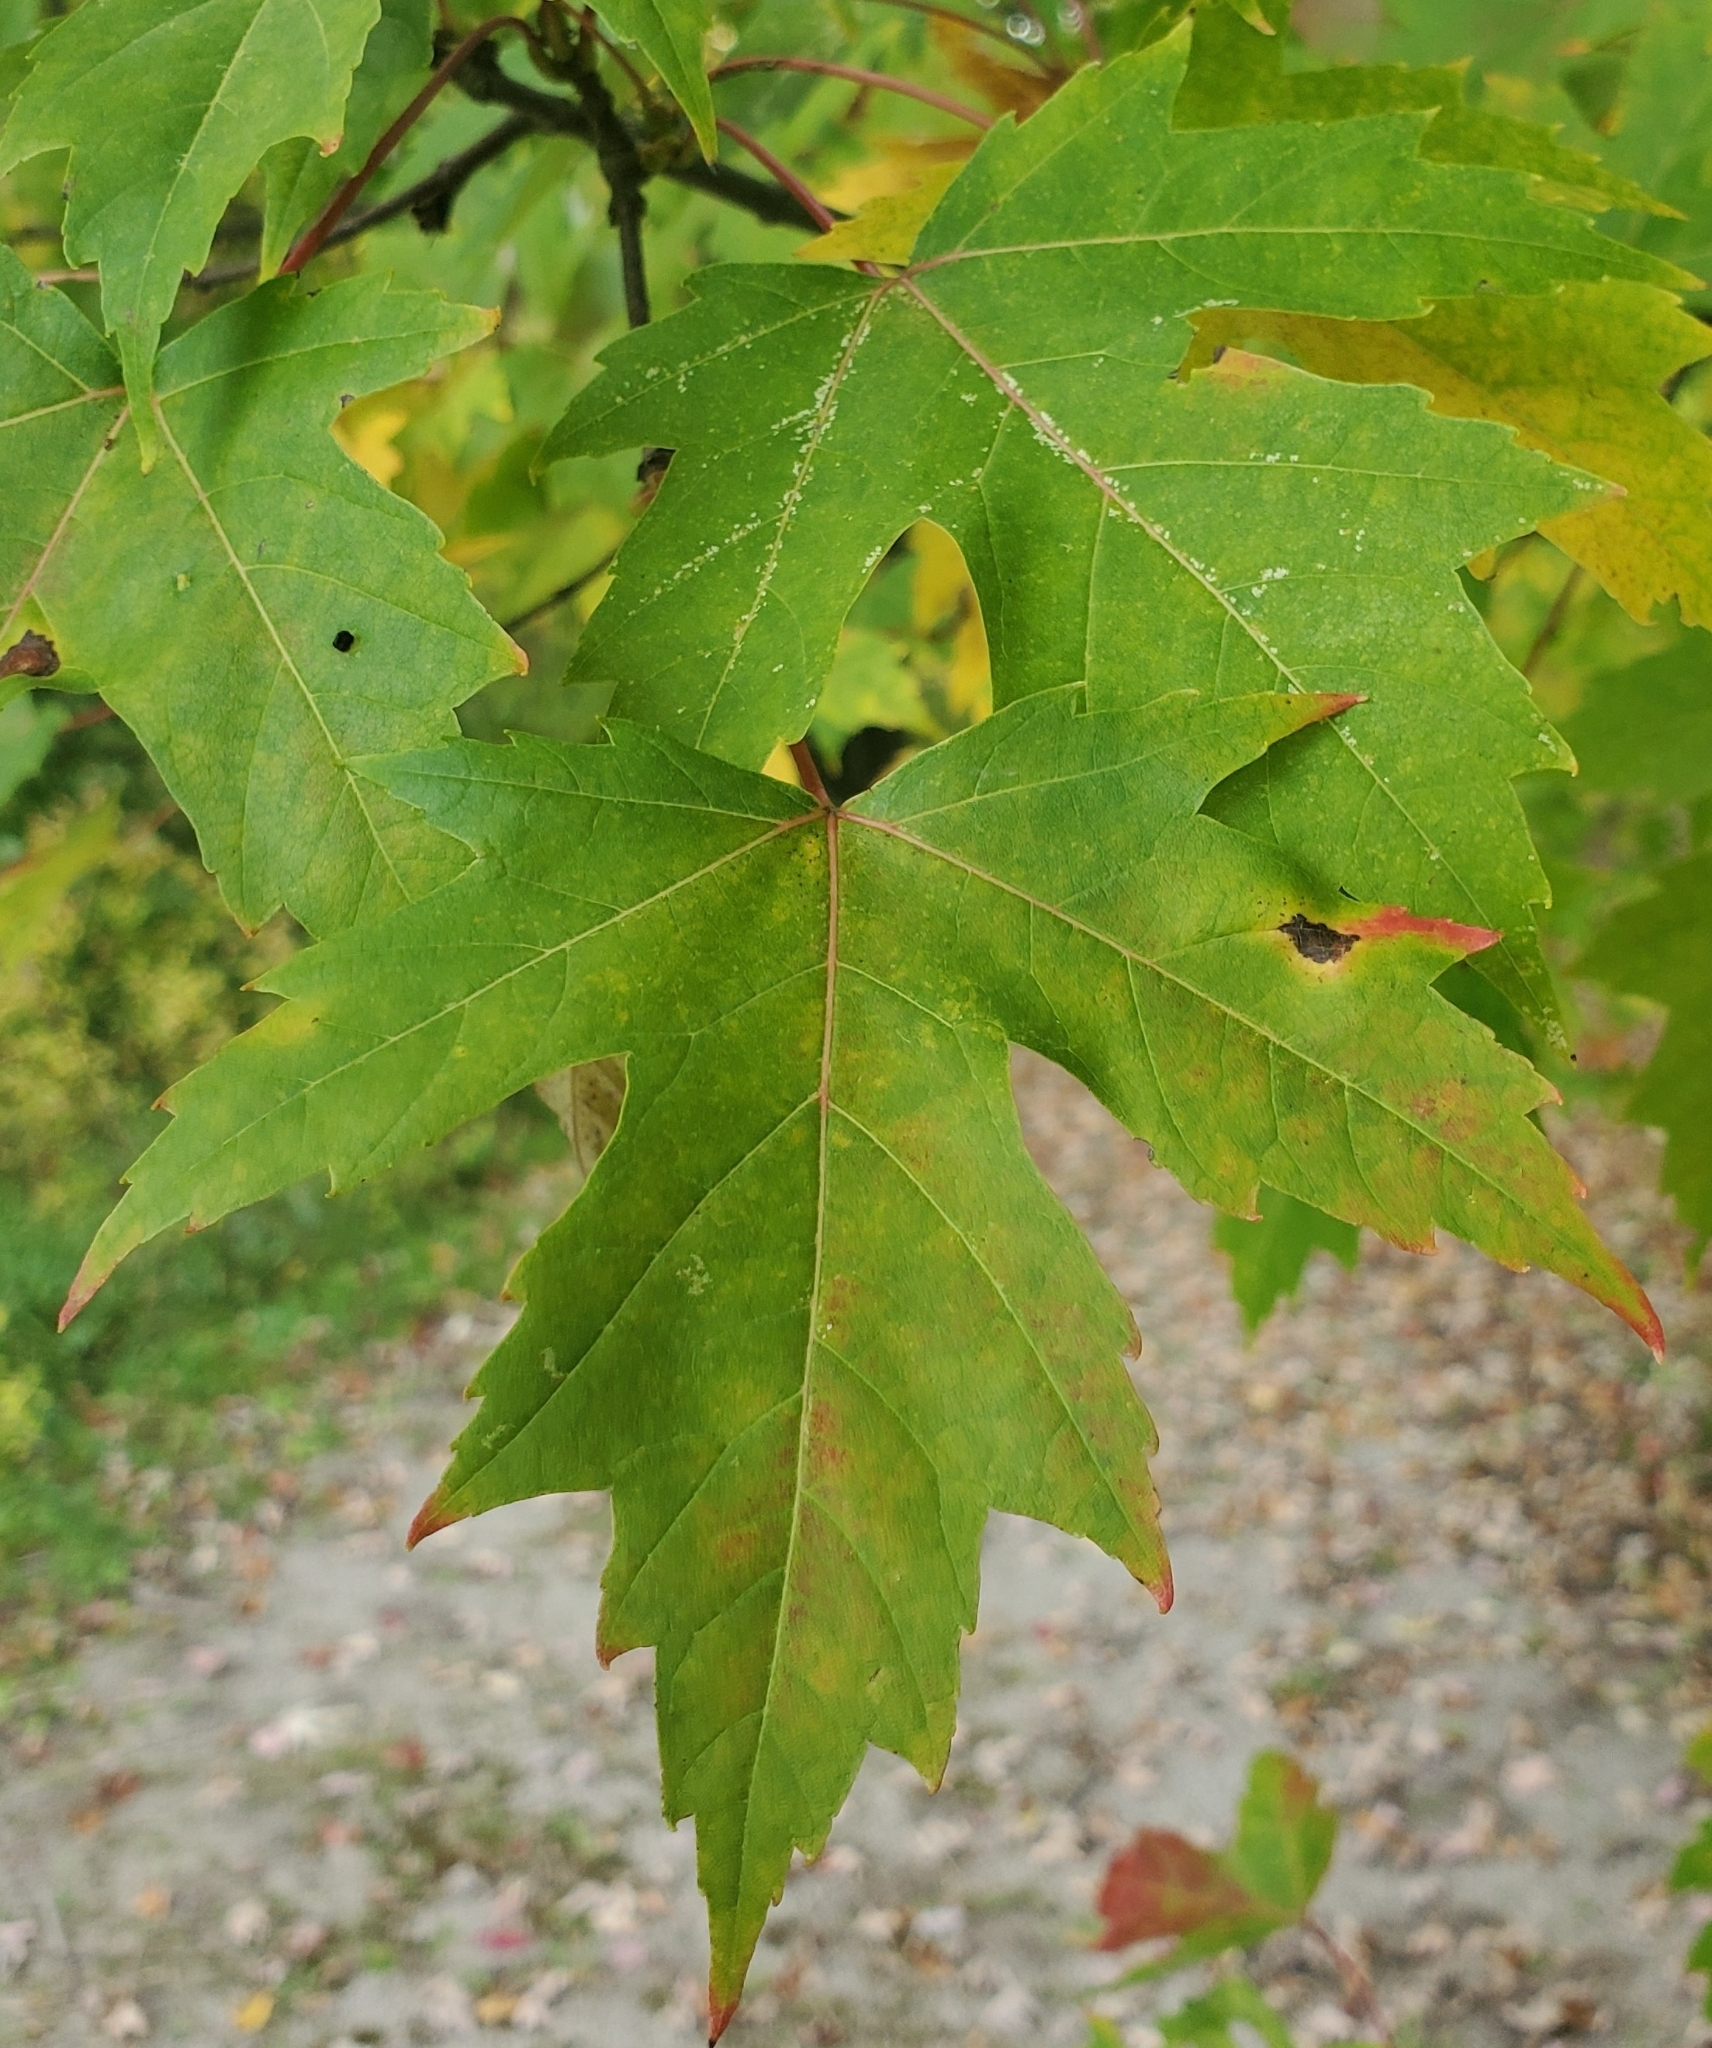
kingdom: Plantae
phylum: Tracheophyta
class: Magnoliopsida
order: Sapindales
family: Sapindaceae
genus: Acer
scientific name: Acer saccharinum
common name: Silver maple
